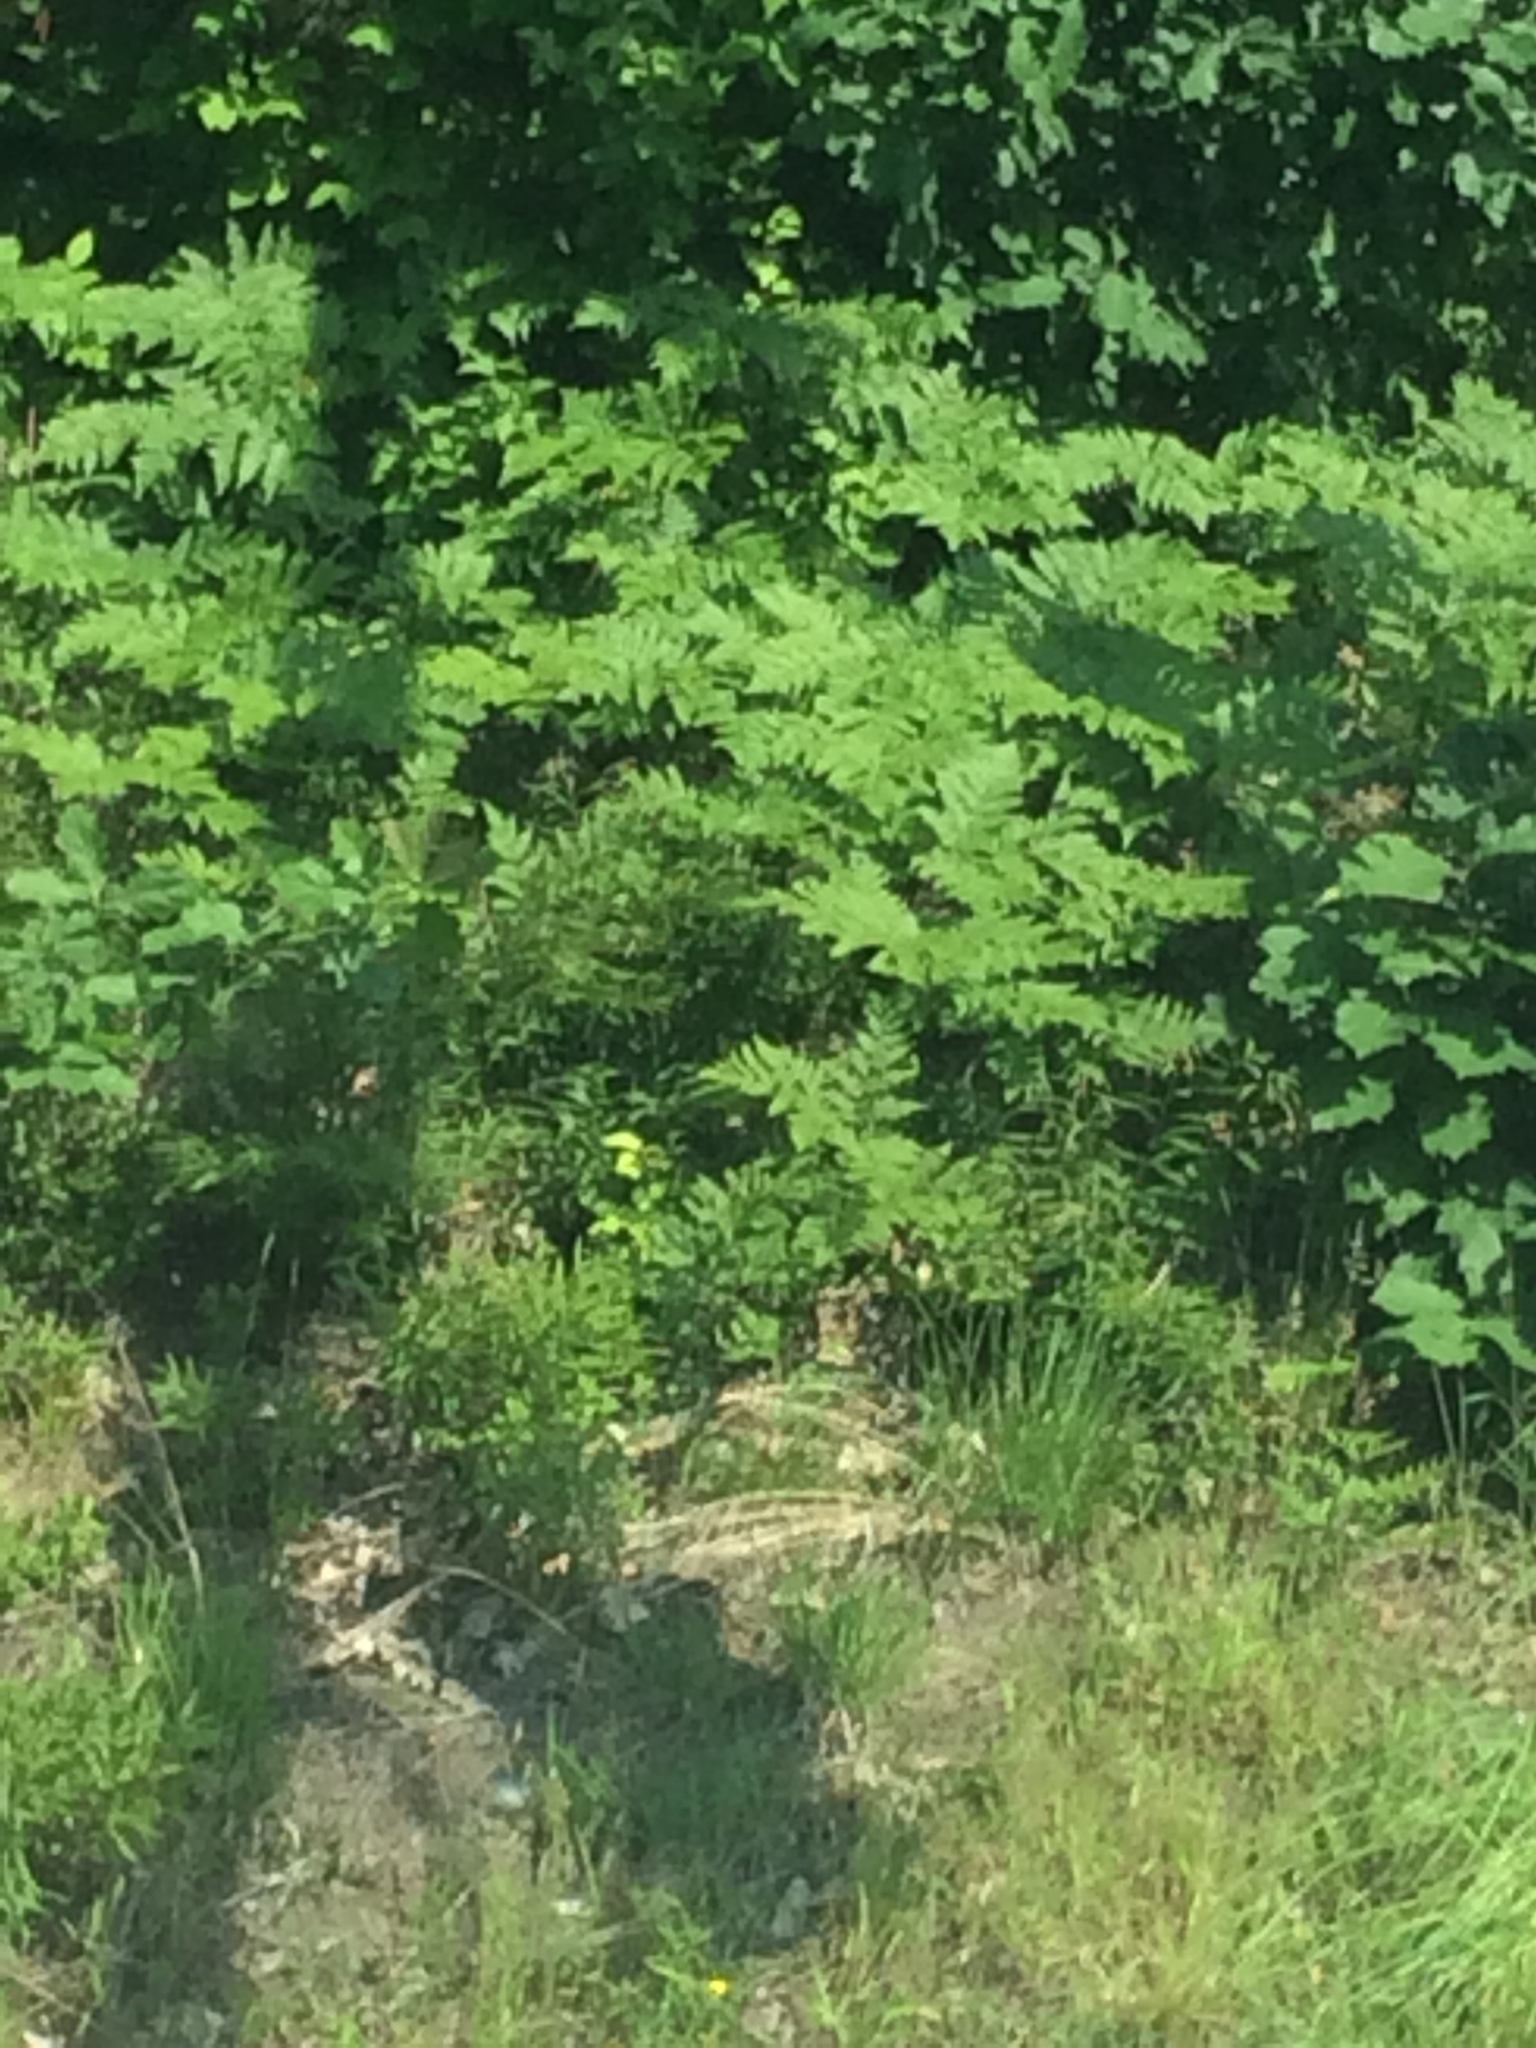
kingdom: Plantae
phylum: Tracheophyta
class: Polypodiopsida
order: Polypodiales
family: Dennstaedtiaceae
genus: Pteridium
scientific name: Pteridium aquilinum
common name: Bracken
